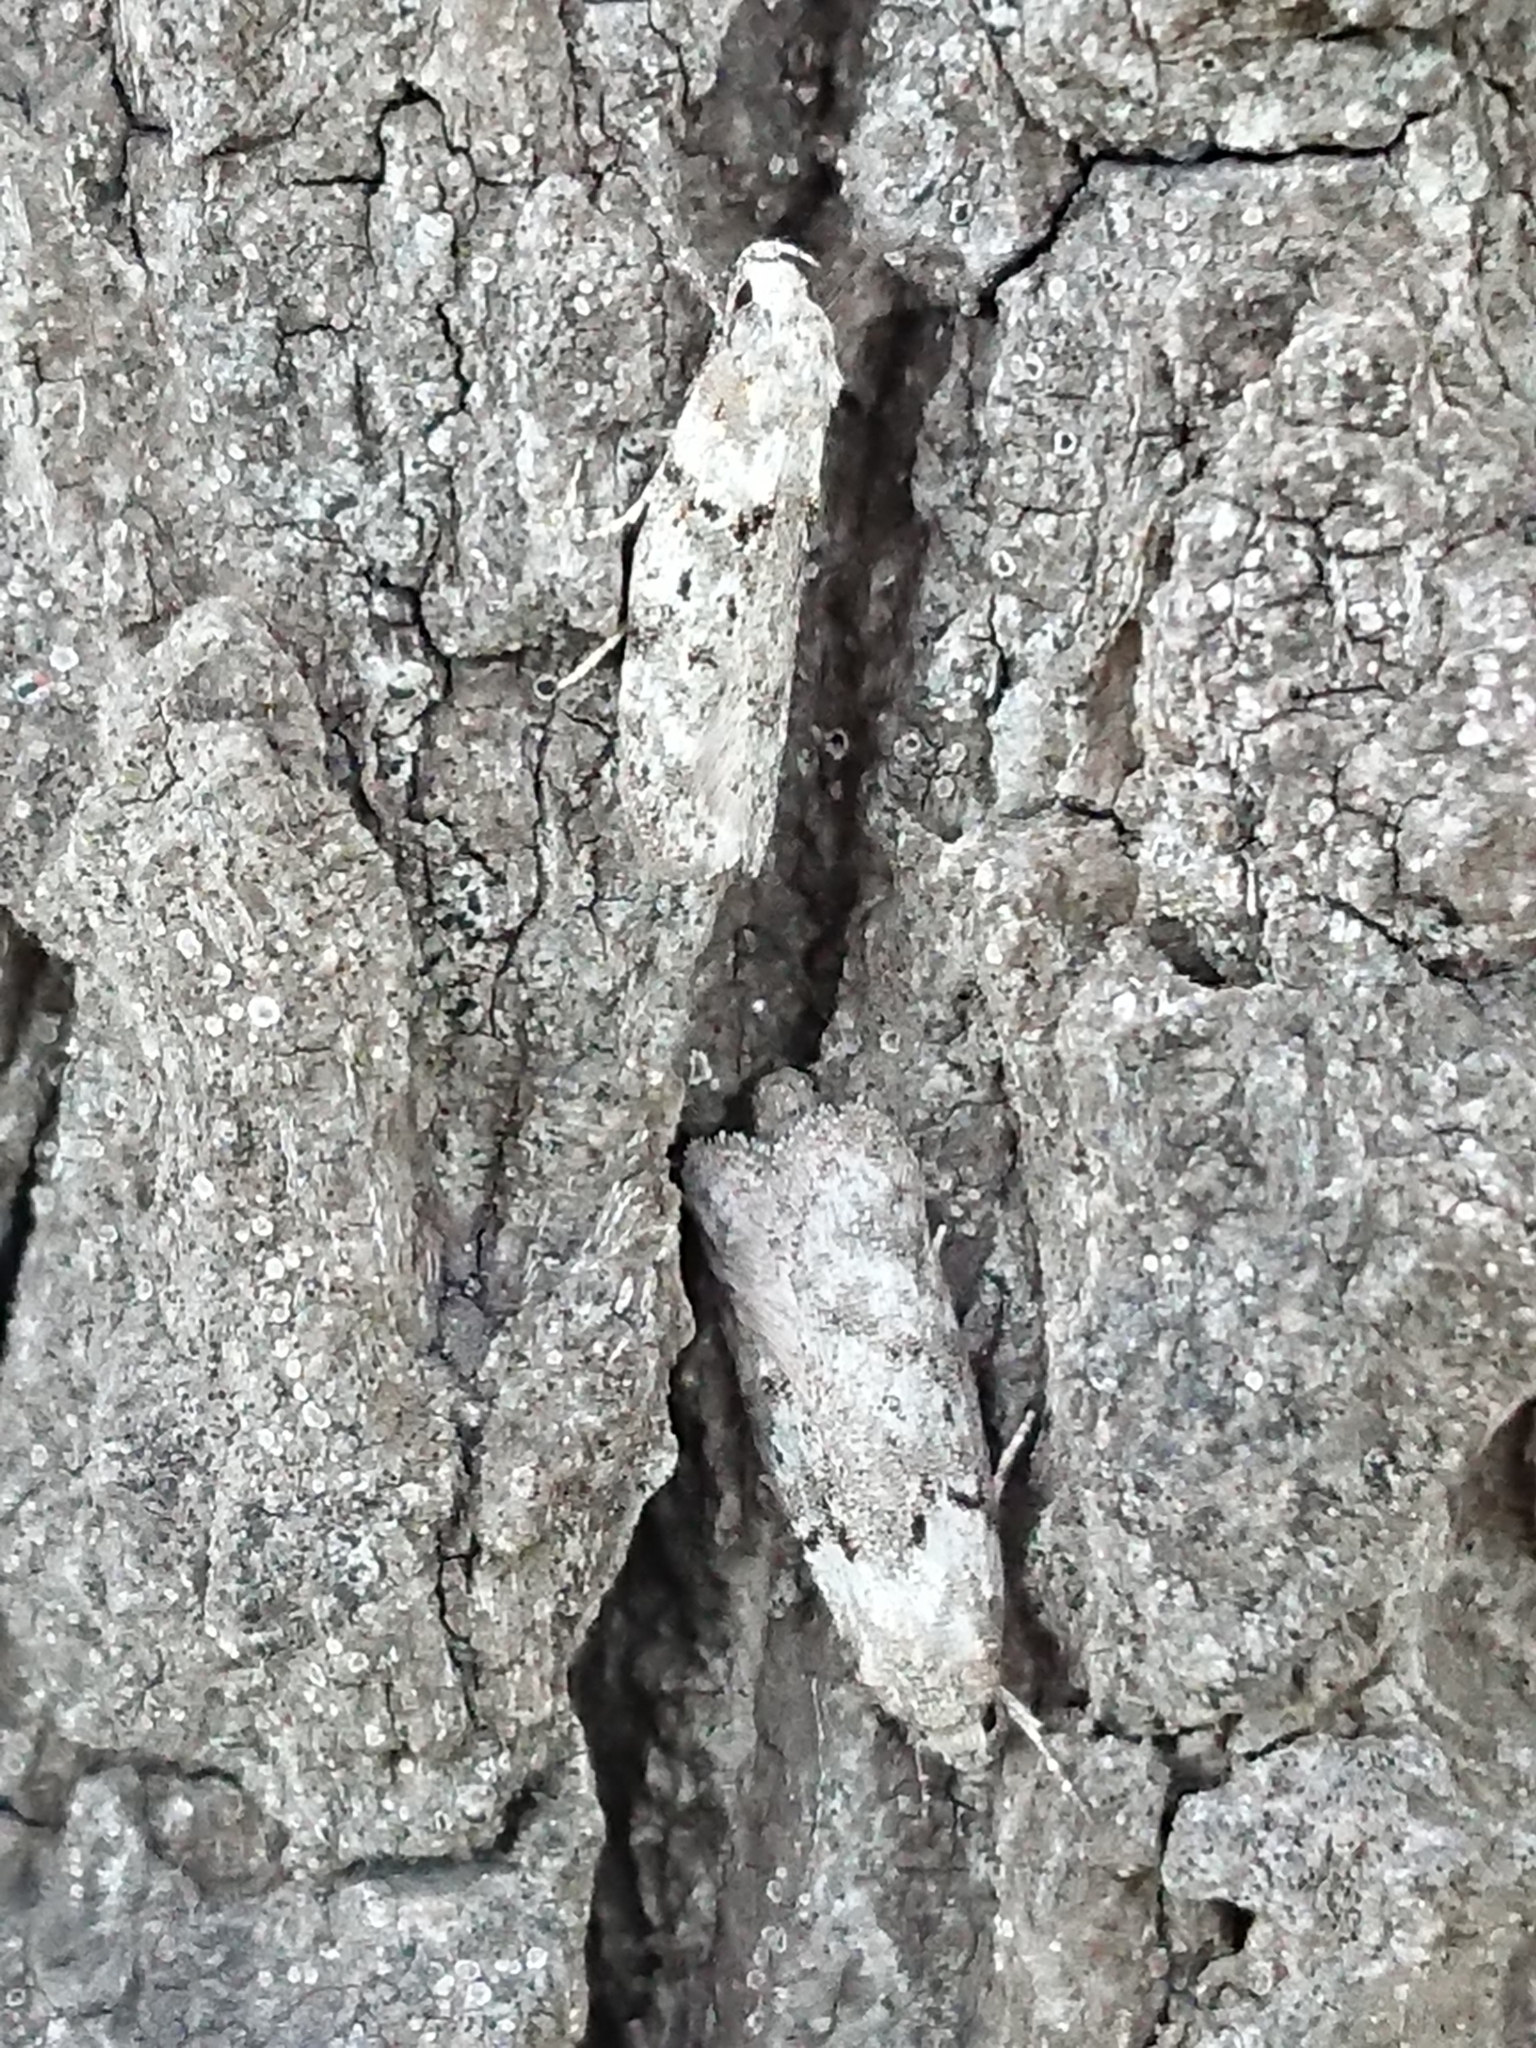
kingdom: Animalia
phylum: Arthropoda
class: Insecta
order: Lepidoptera
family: Oecophoridae
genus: Izatha
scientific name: Izatha convulsella
